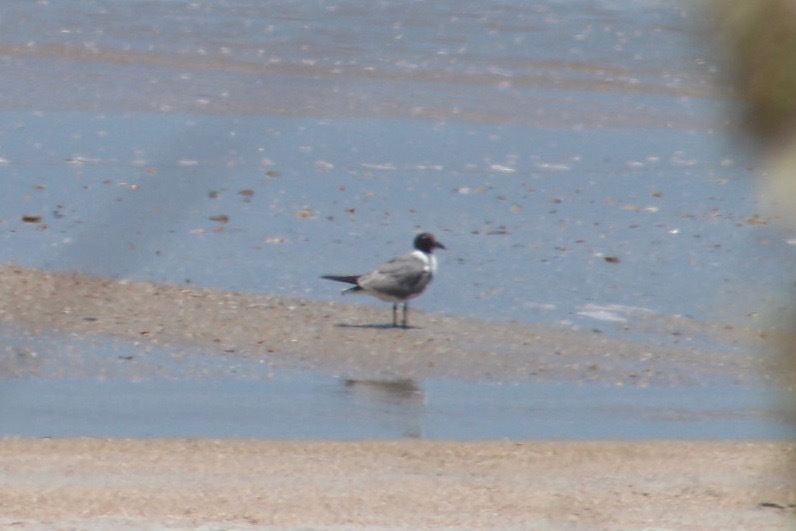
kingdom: Animalia
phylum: Chordata
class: Aves
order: Charadriiformes
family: Laridae
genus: Leucophaeus
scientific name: Leucophaeus atricilla
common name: Laughing gull
